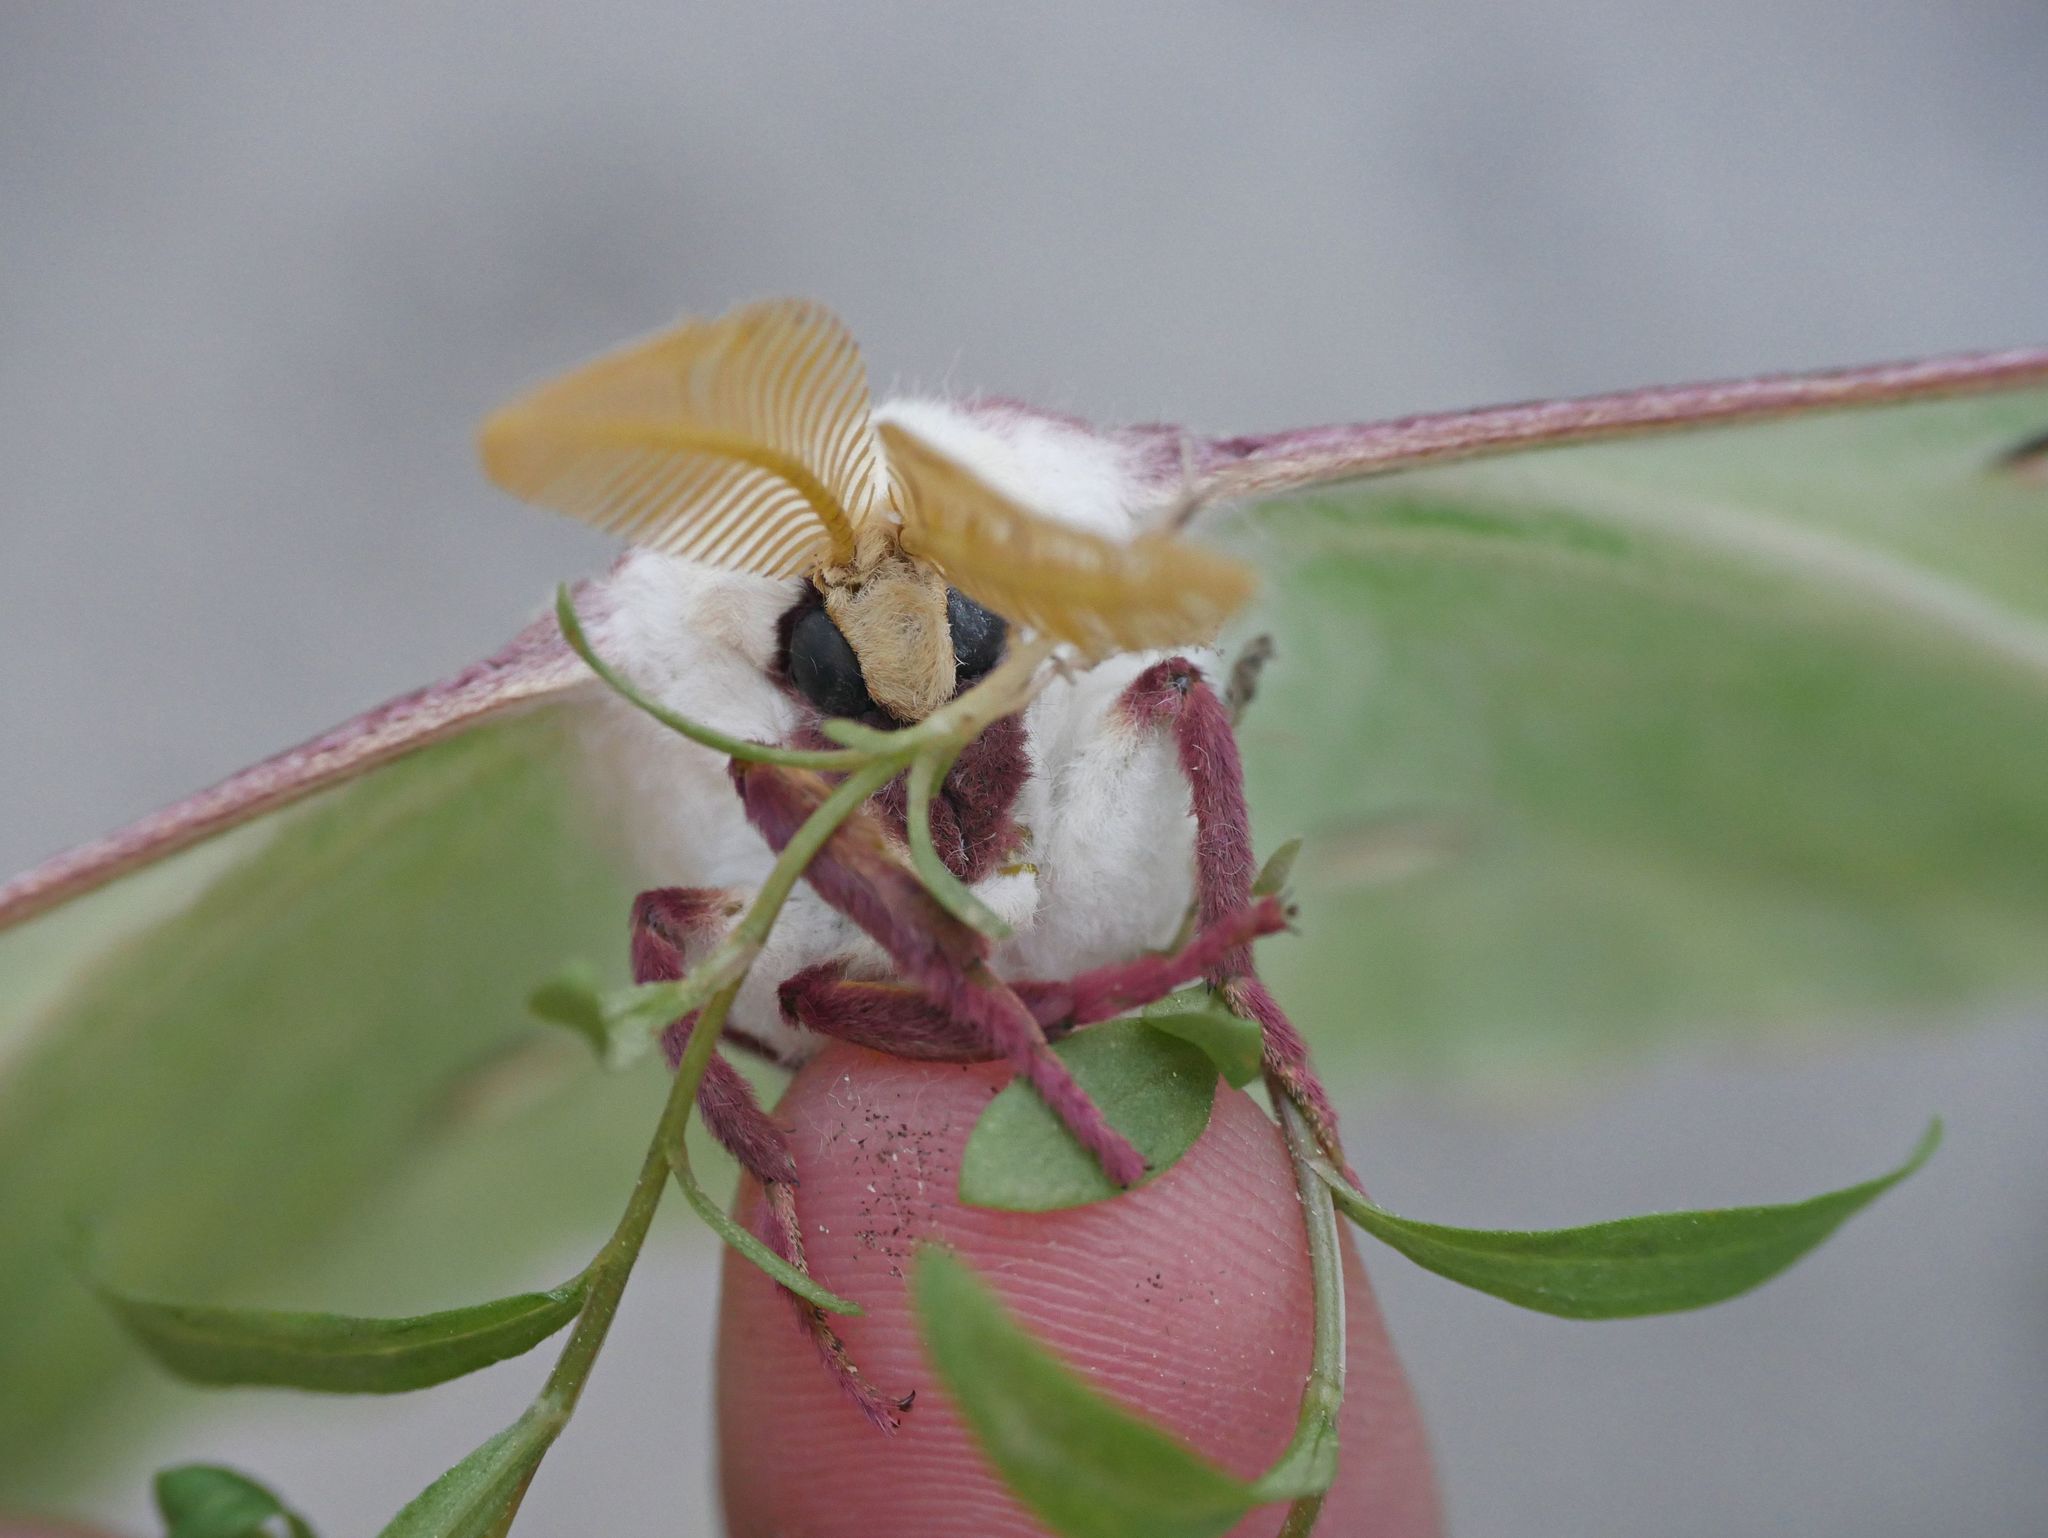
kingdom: Animalia
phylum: Arthropoda
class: Insecta
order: Lepidoptera
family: Saturniidae
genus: Actias
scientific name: Actias luna
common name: Luna moth
